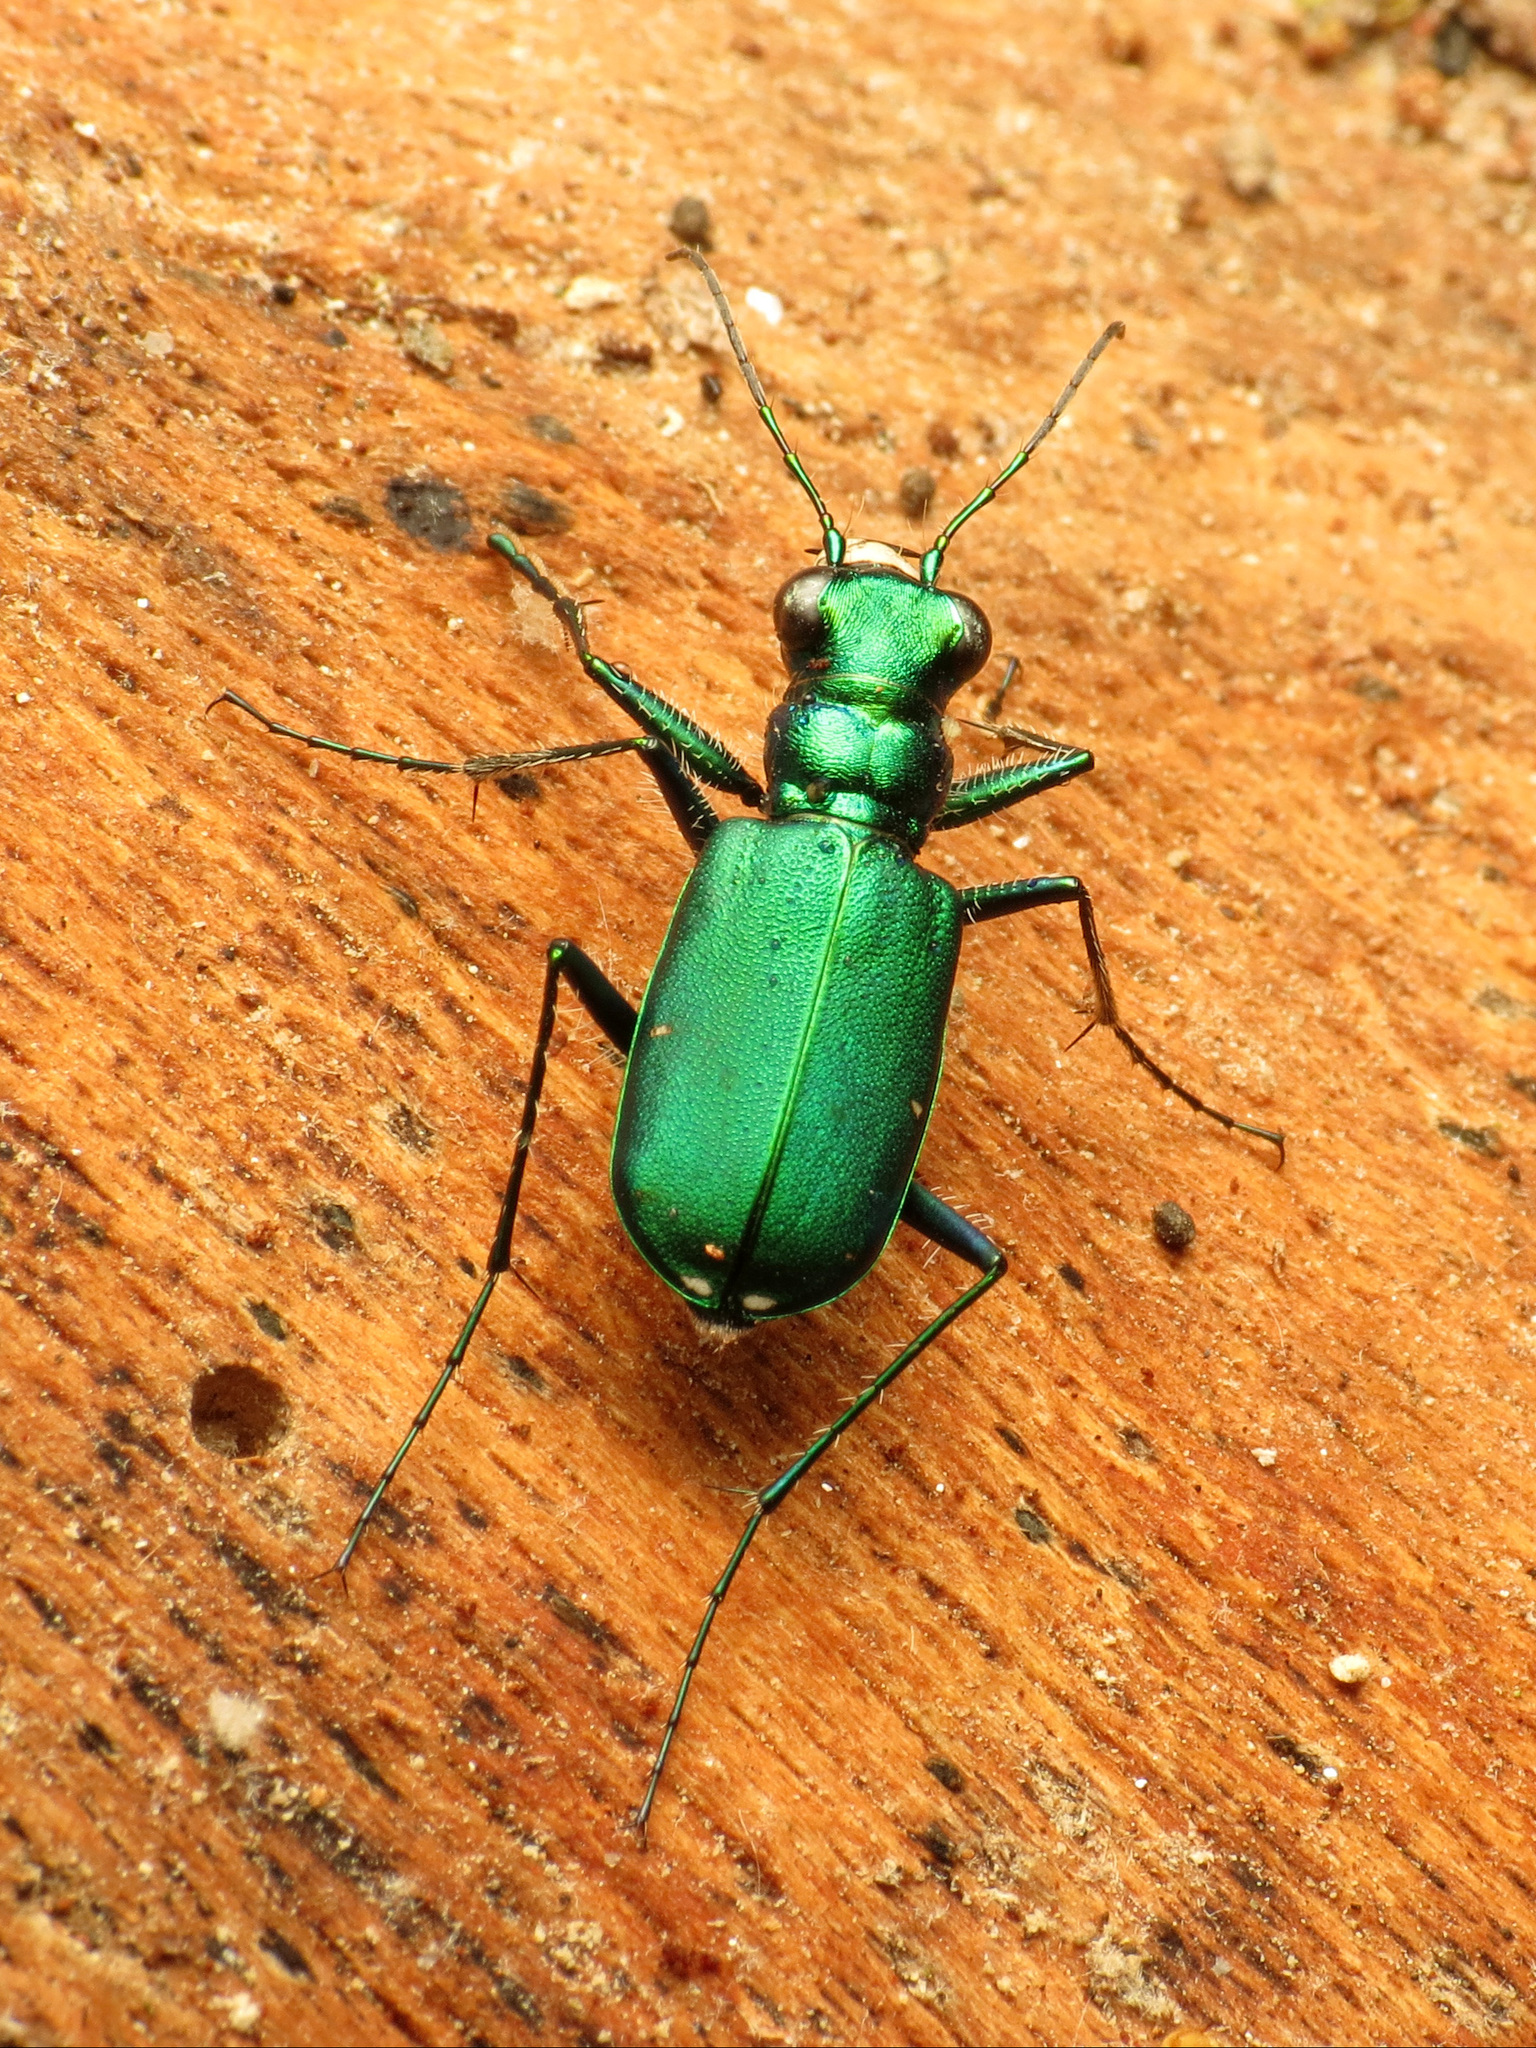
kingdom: Animalia
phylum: Arthropoda
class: Insecta
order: Coleoptera
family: Carabidae
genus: Cicindela
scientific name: Cicindela sexguttata
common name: Six-spotted tiger beetle
